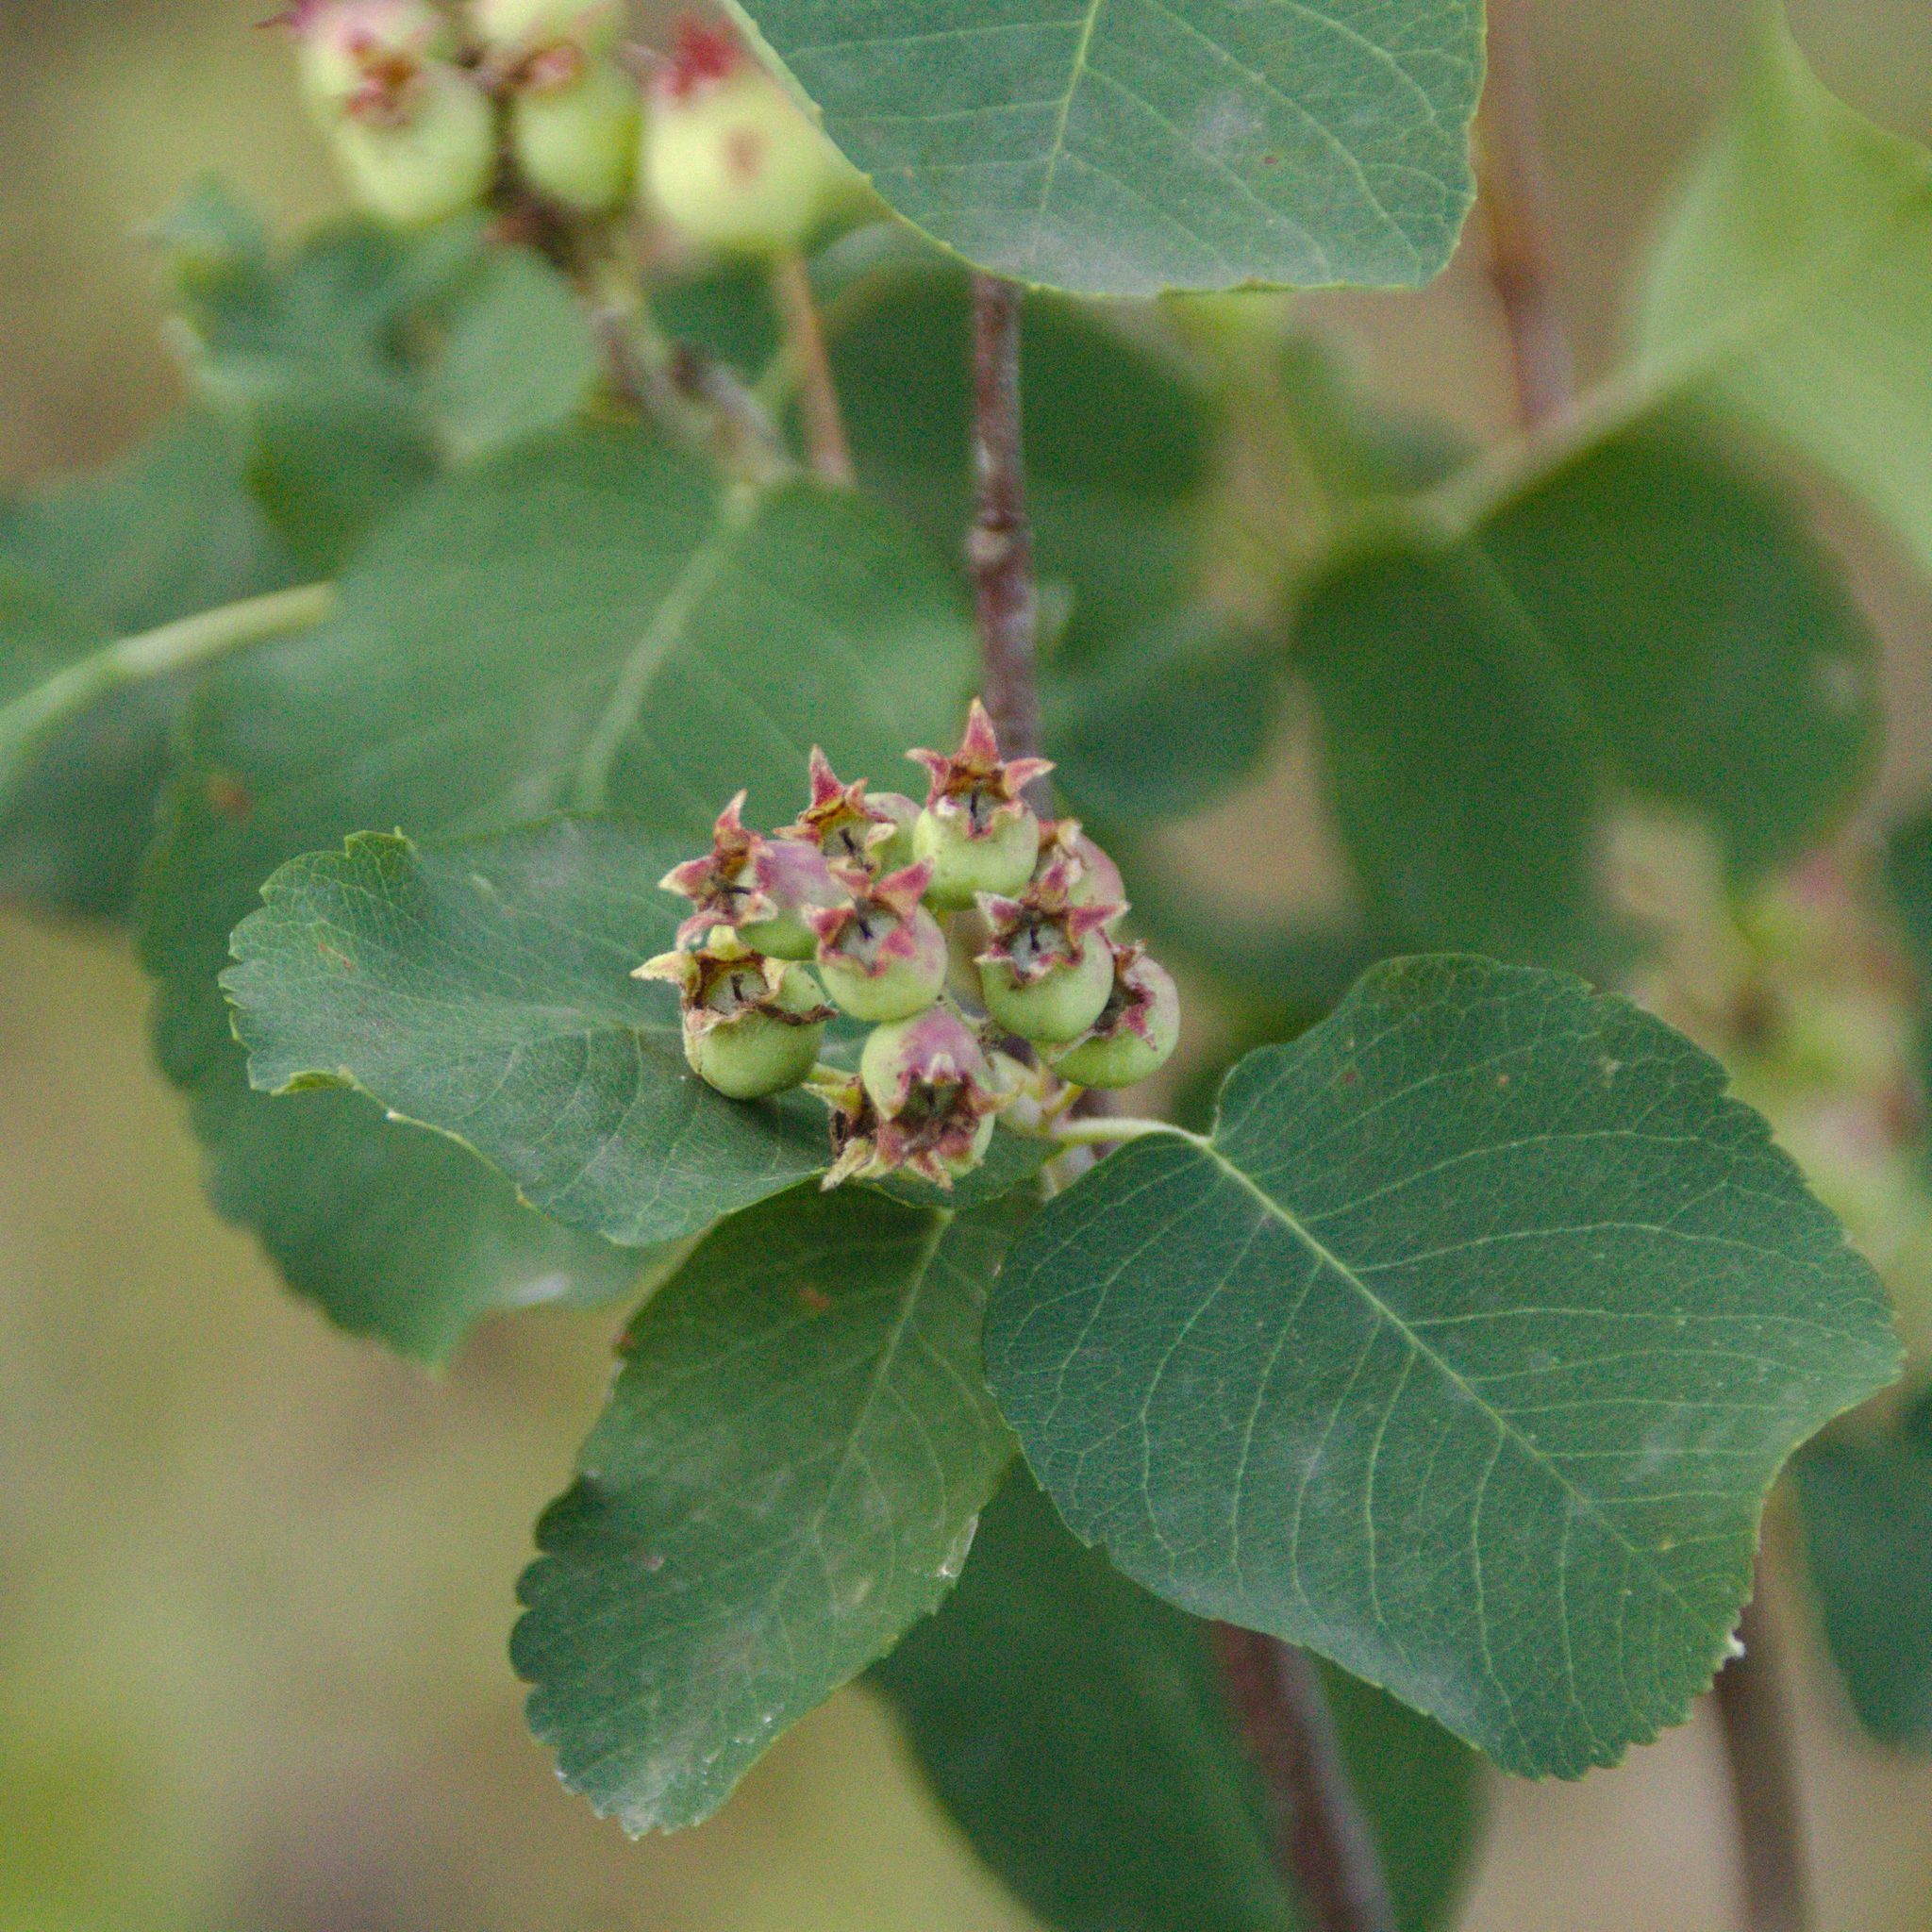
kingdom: Plantae
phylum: Tracheophyta
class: Magnoliopsida
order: Rosales
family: Rosaceae
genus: Amelanchier
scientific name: Amelanchier alnifolia
